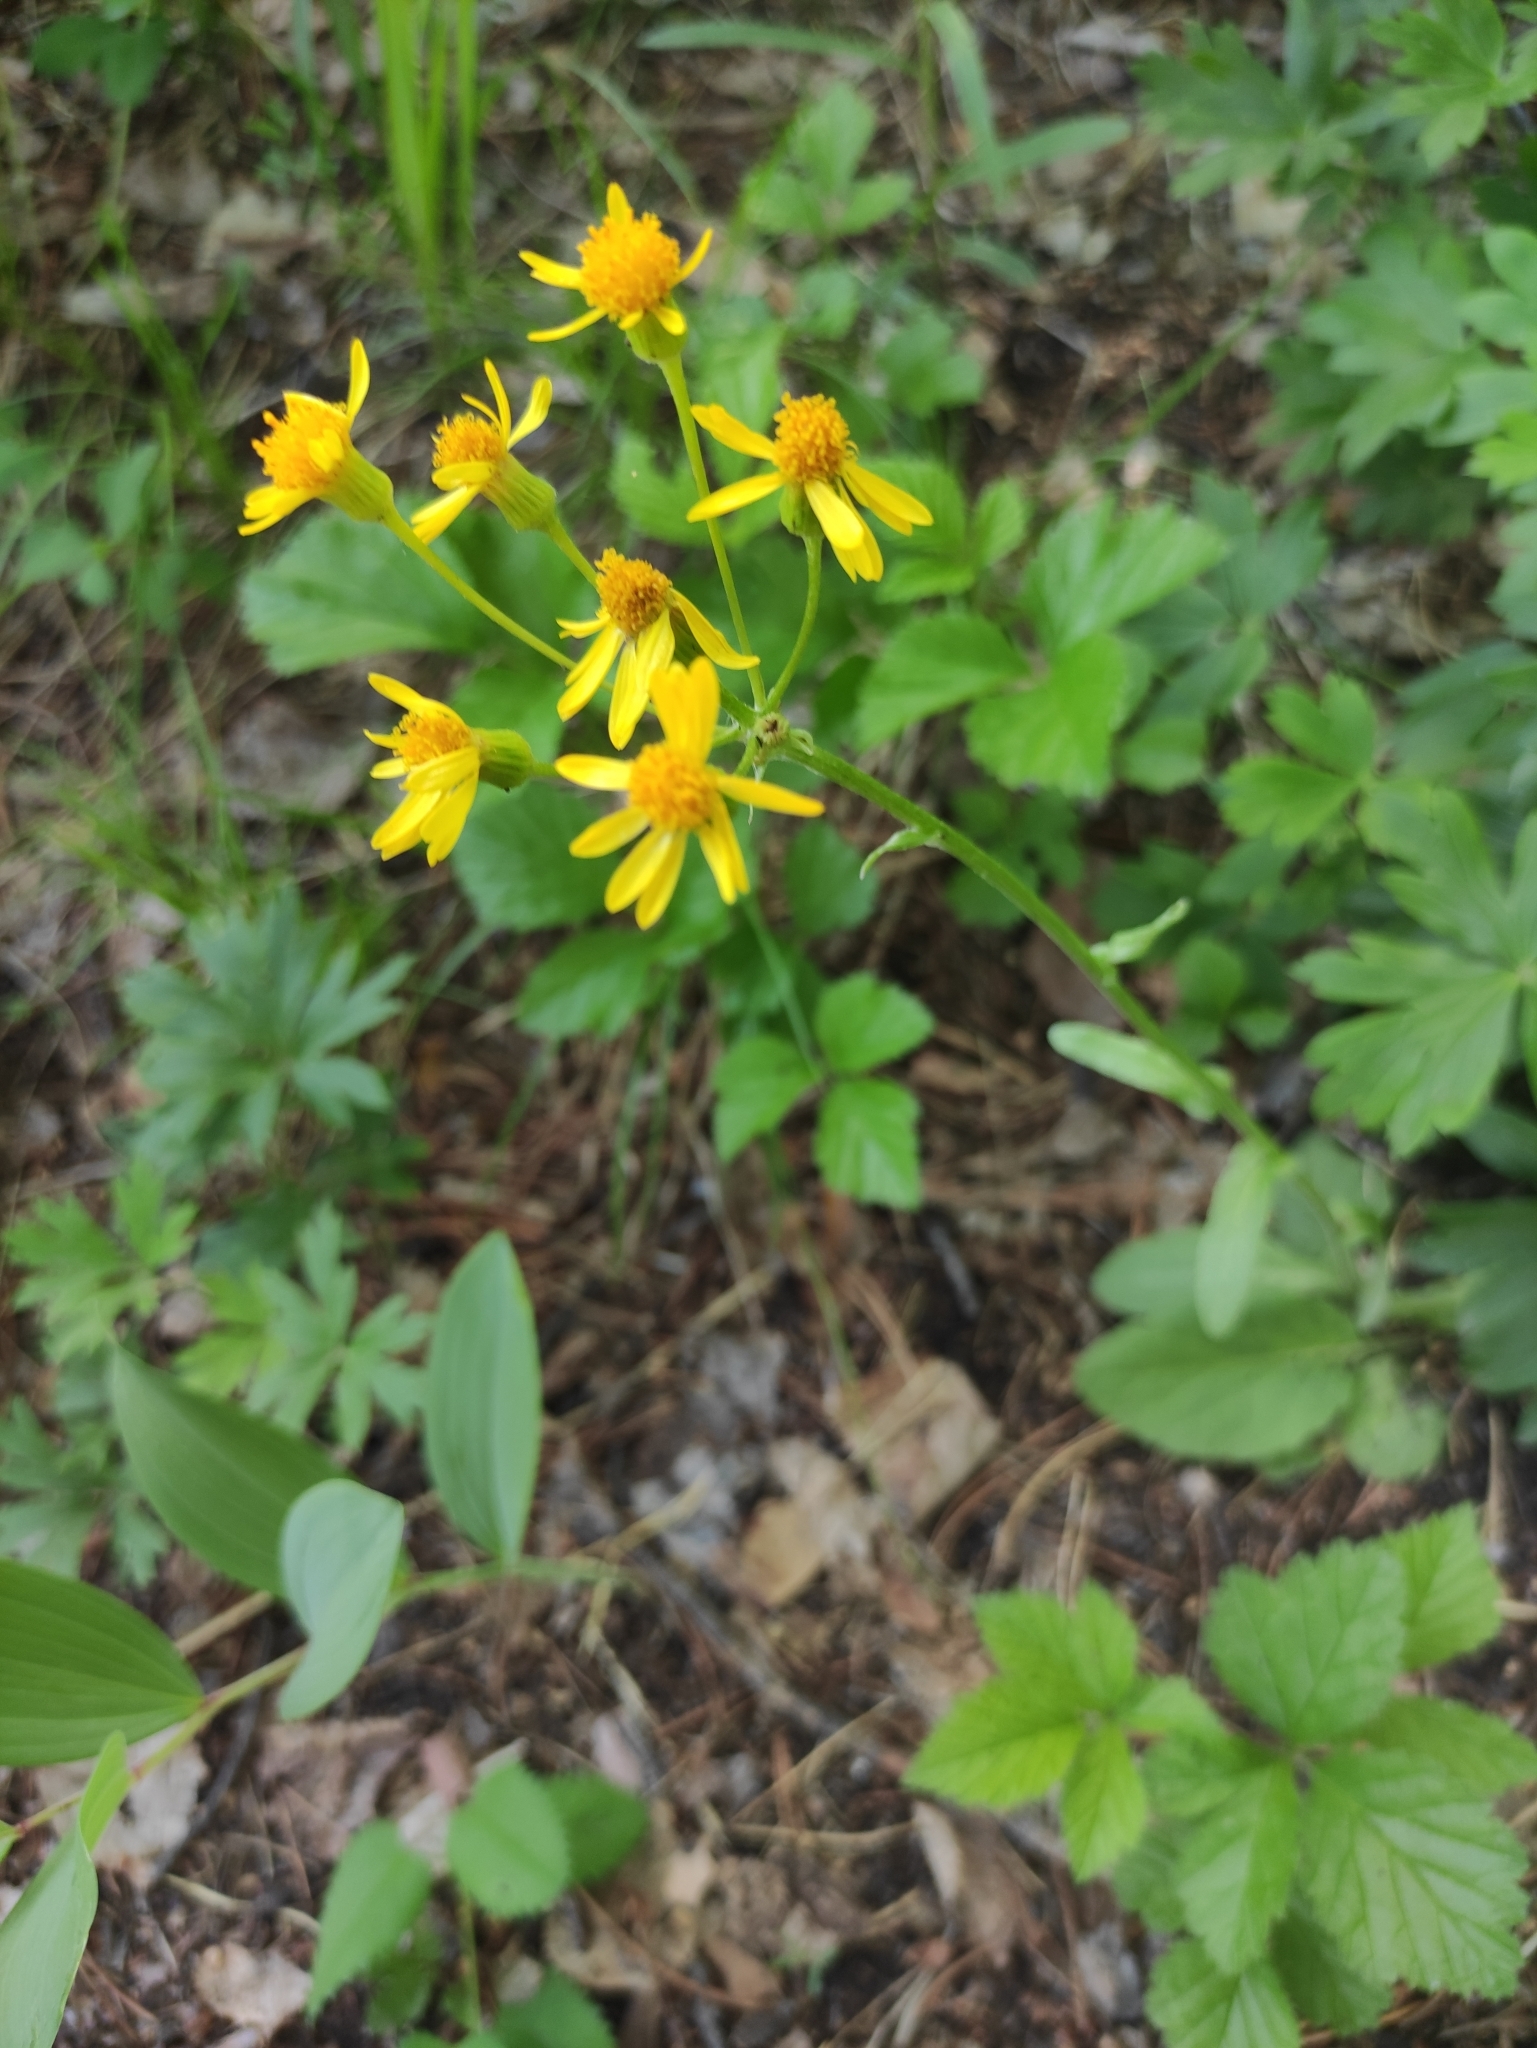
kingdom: Plantae
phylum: Tracheophyta
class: Magnoliopsida
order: Asterales
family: Asteraceae
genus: Tephroseris
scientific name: Tephroseris integrifolia
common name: Field fleawort
